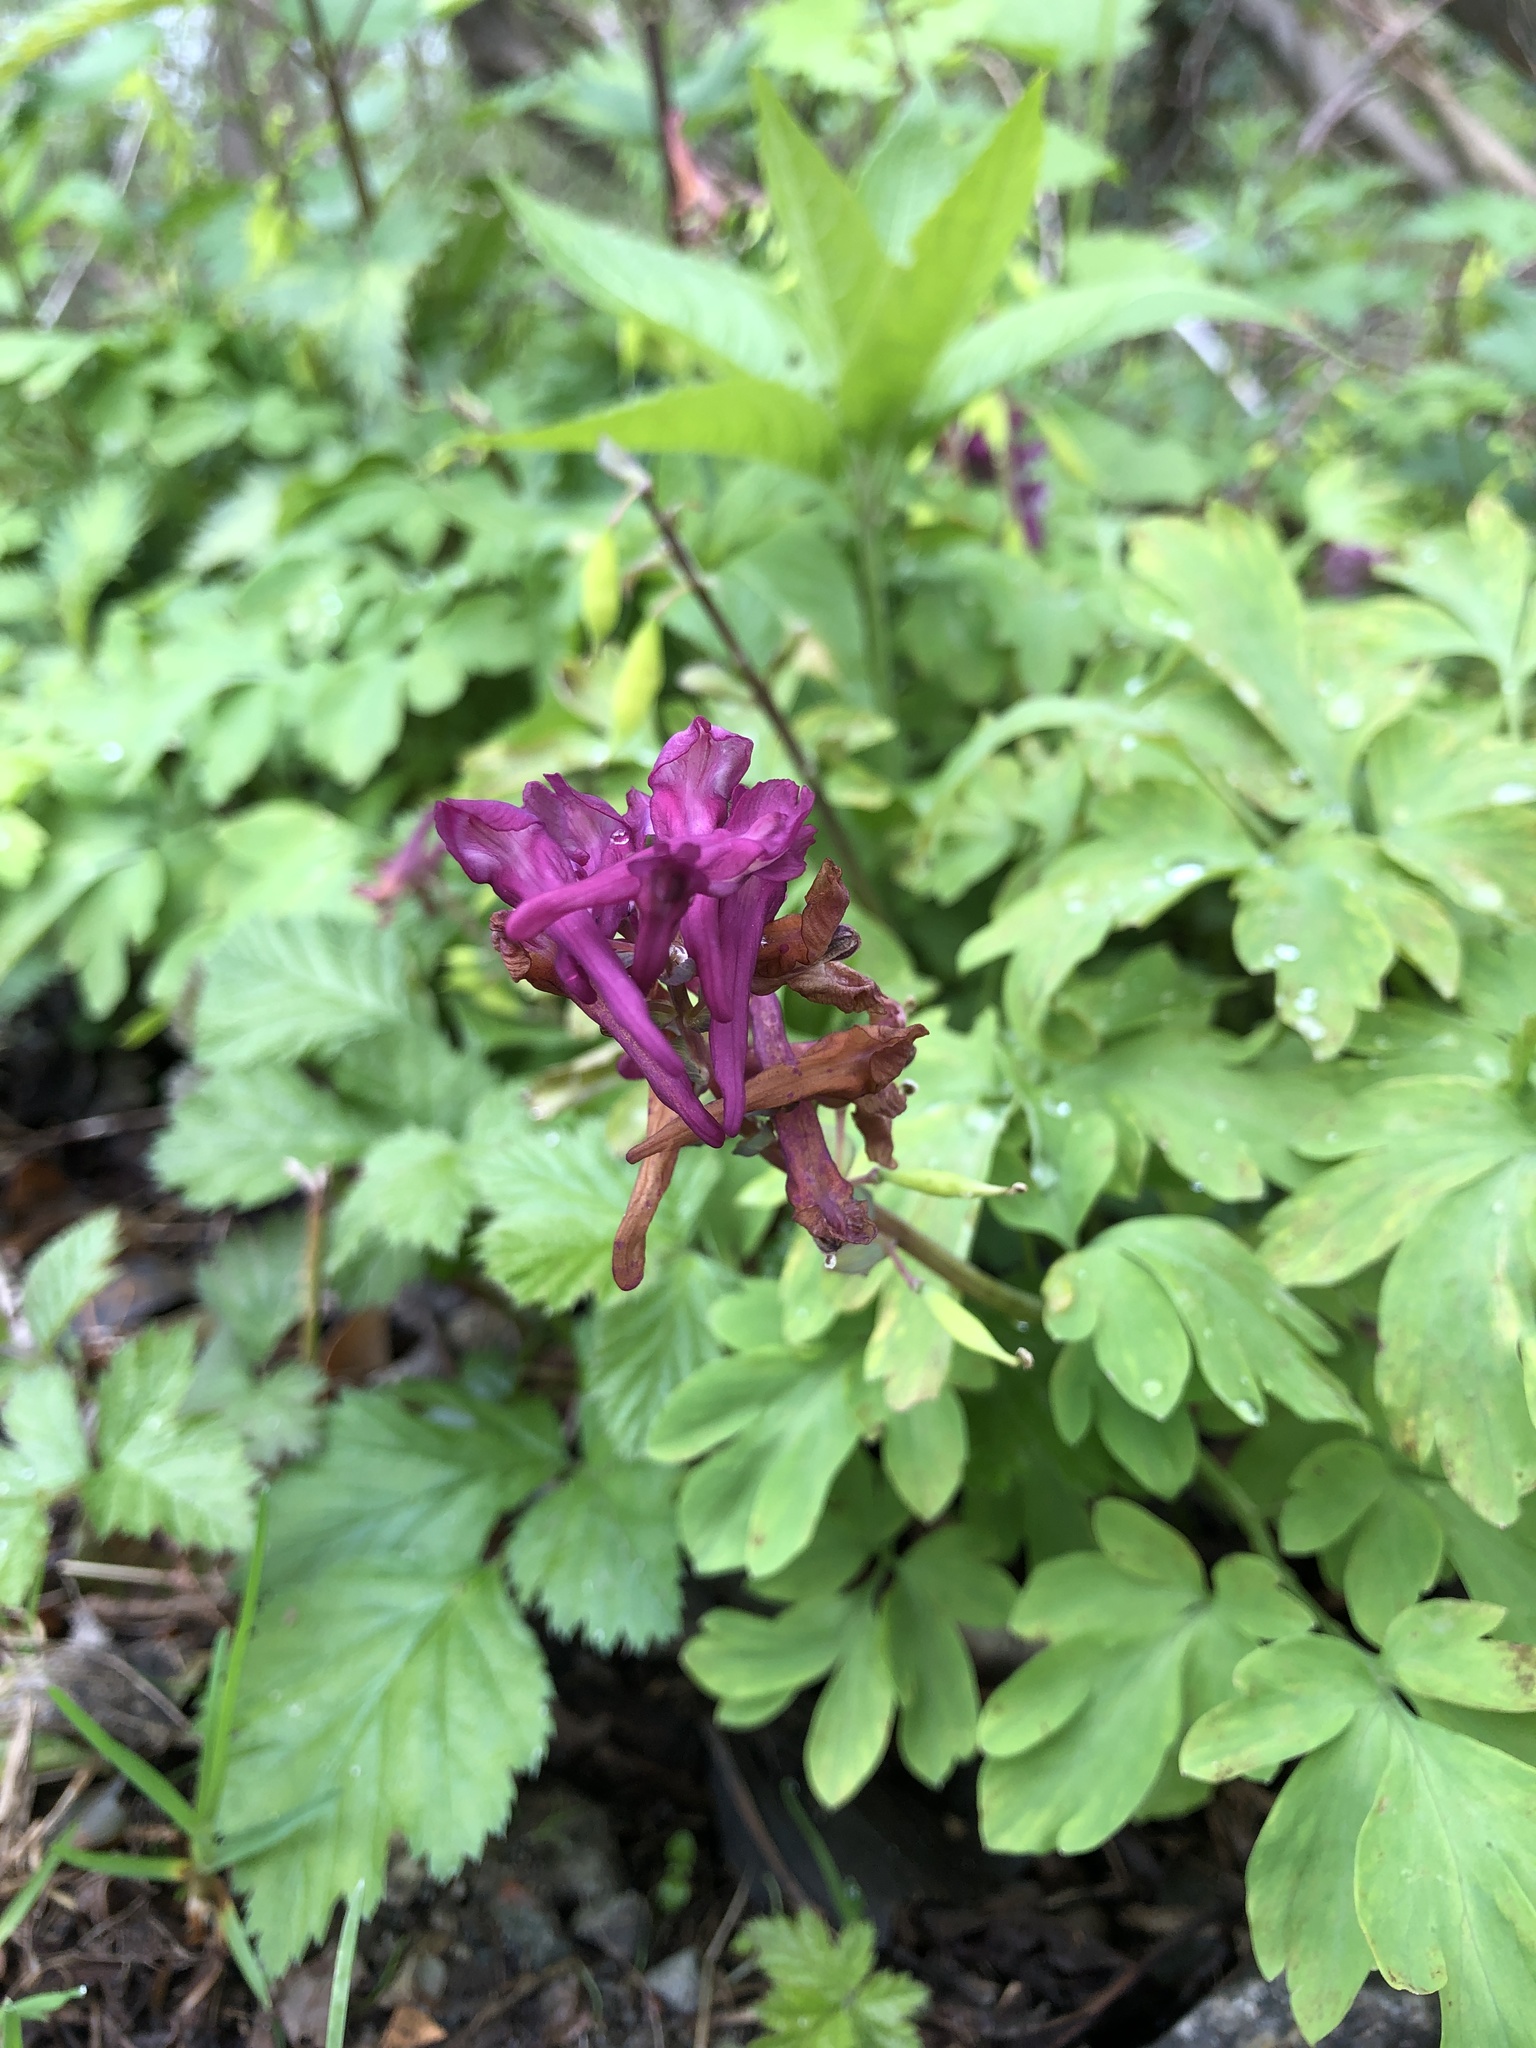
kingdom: Plantae
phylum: Tracheophyta
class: Magnoliopsida
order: Ranunculales
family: Papaveraceae
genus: Corydalis
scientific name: Corydalis cava
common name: Hollowroot
